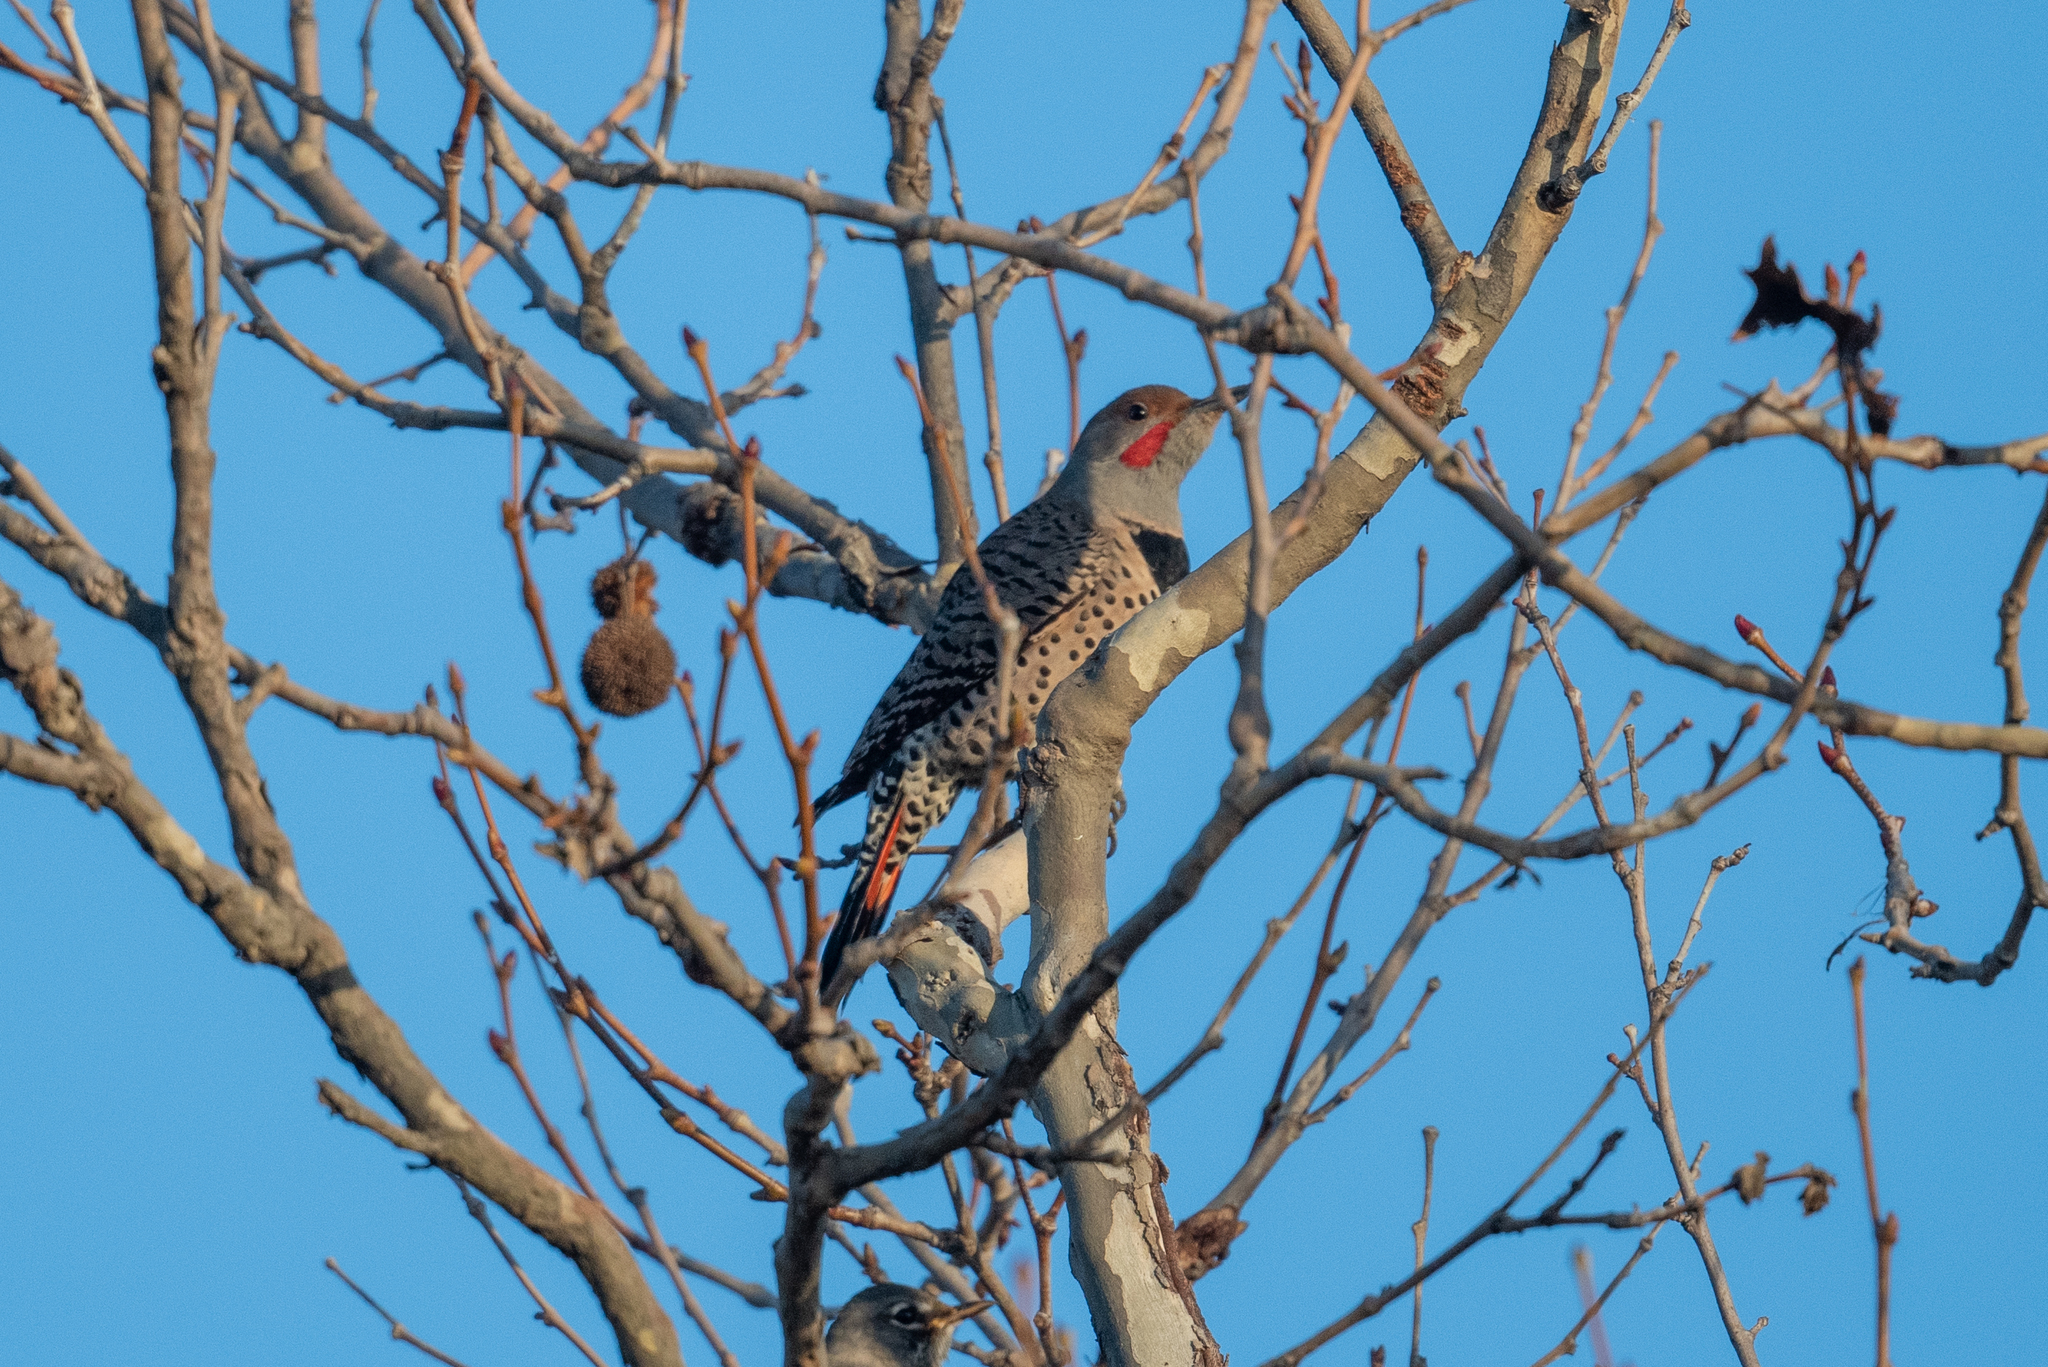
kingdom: Animalia
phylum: Chordata
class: Aves
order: Piciformes
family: Picidae
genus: Colaptes
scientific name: Colaptes auratus
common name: Northern flicker
